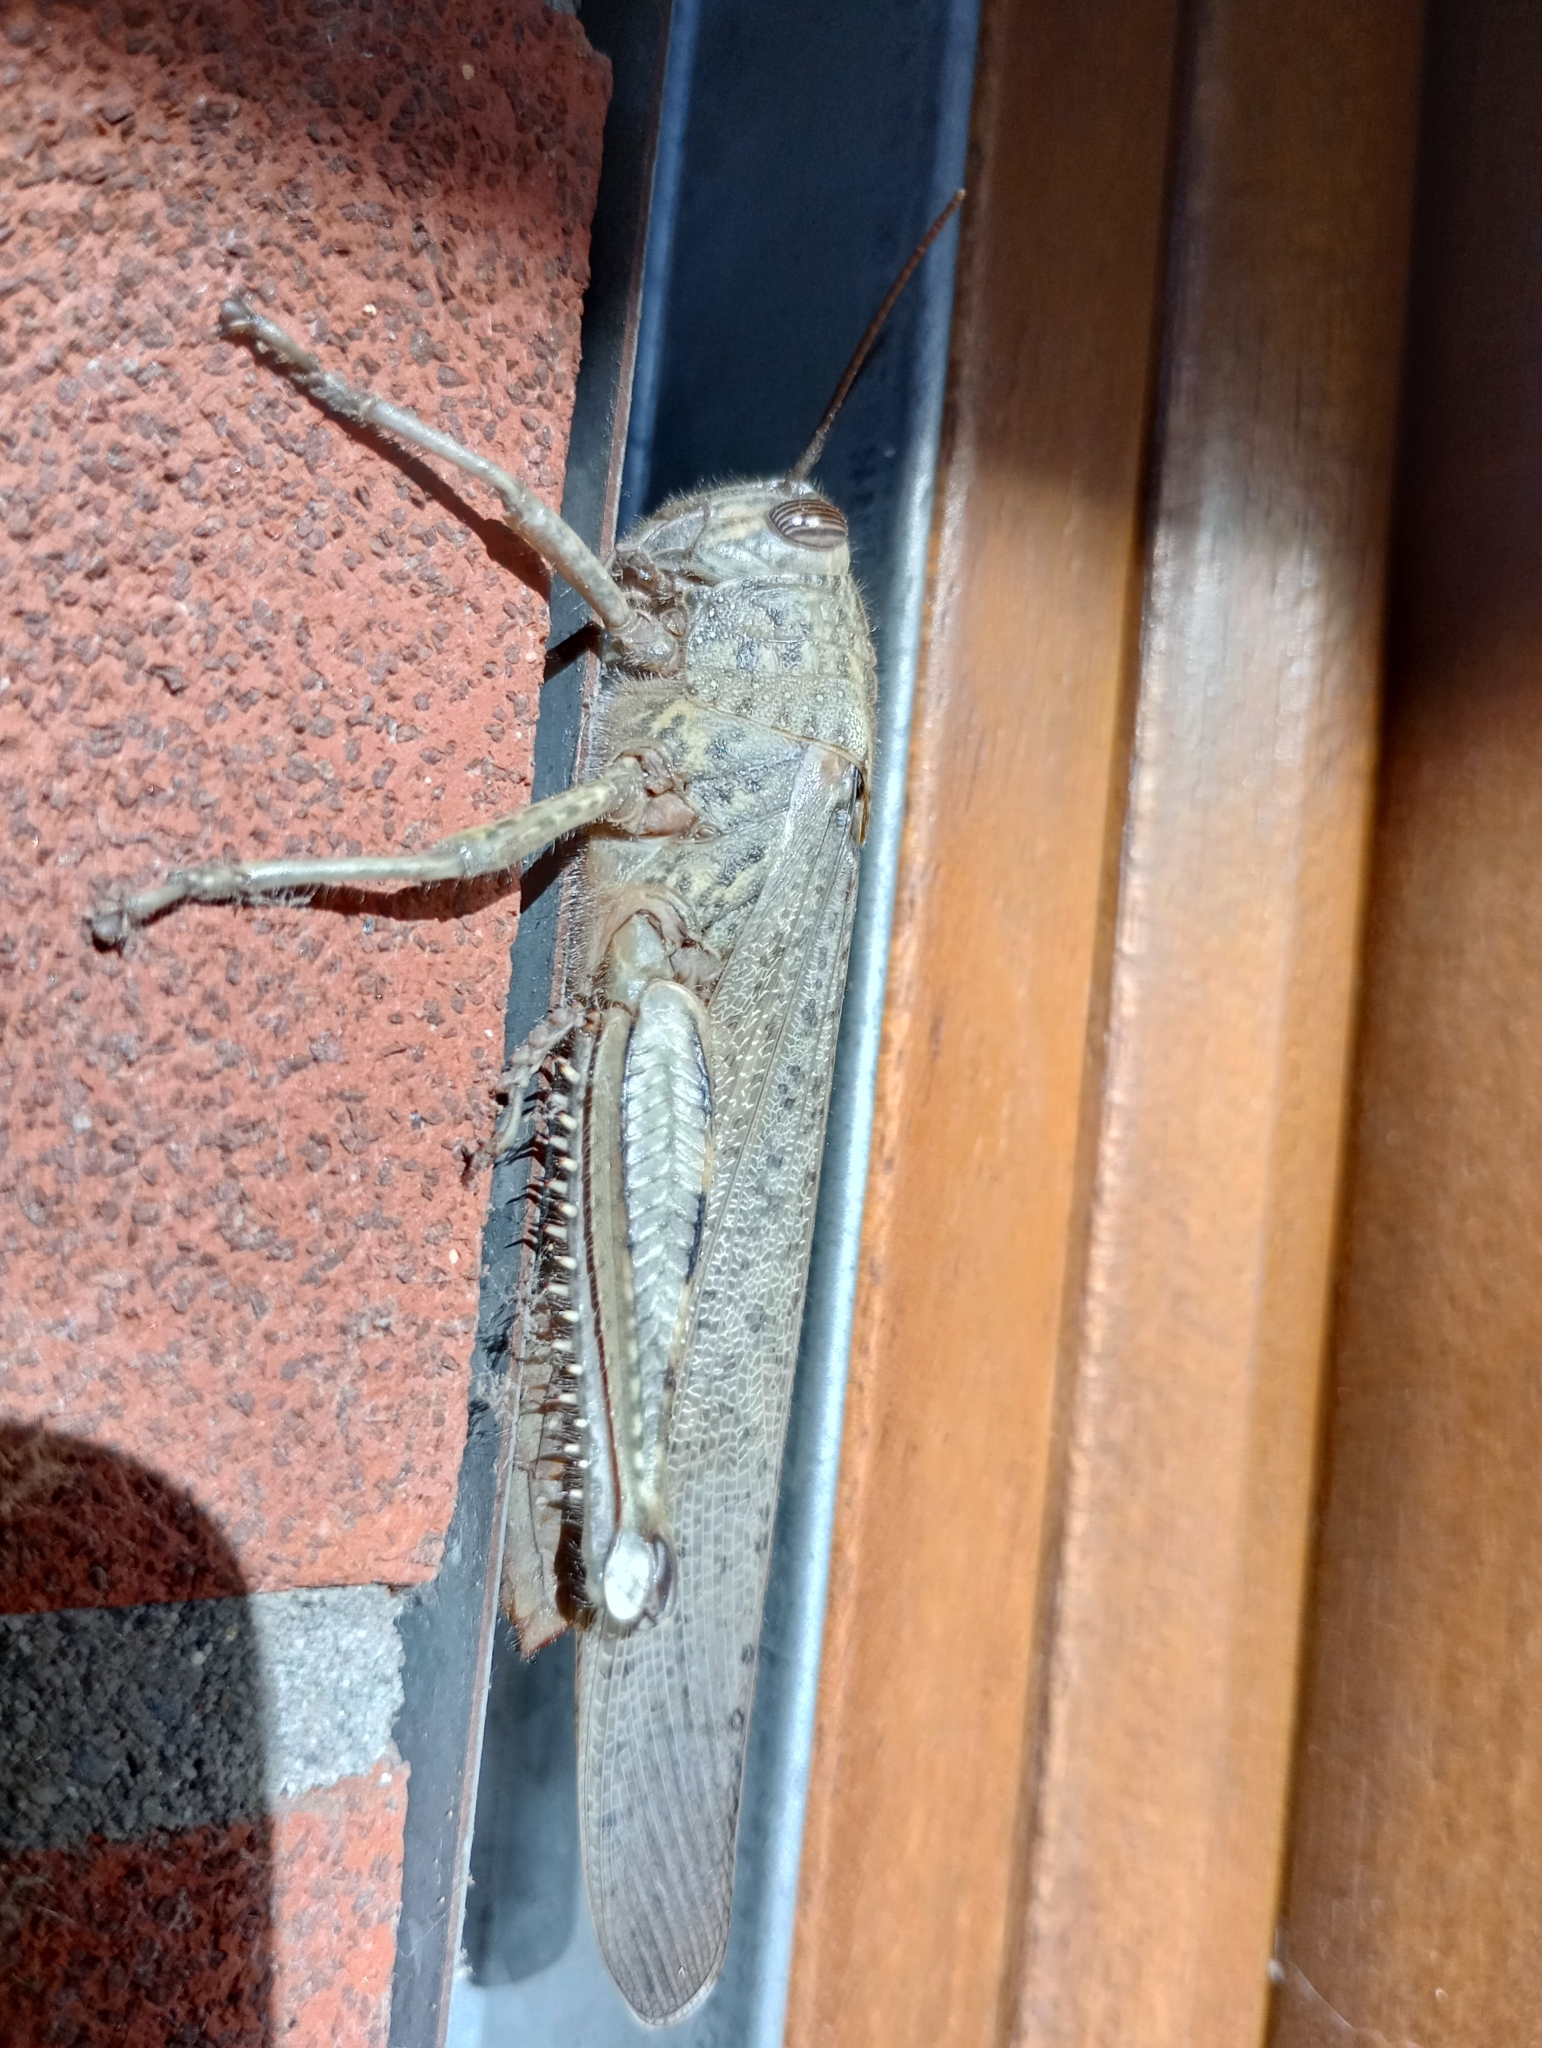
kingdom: Animalia
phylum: Arthropoda
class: Insecta
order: Orthoptera
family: Acrididae
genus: Anacridium
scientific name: Anacridium aegyptium
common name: Egyptian grasshopper
